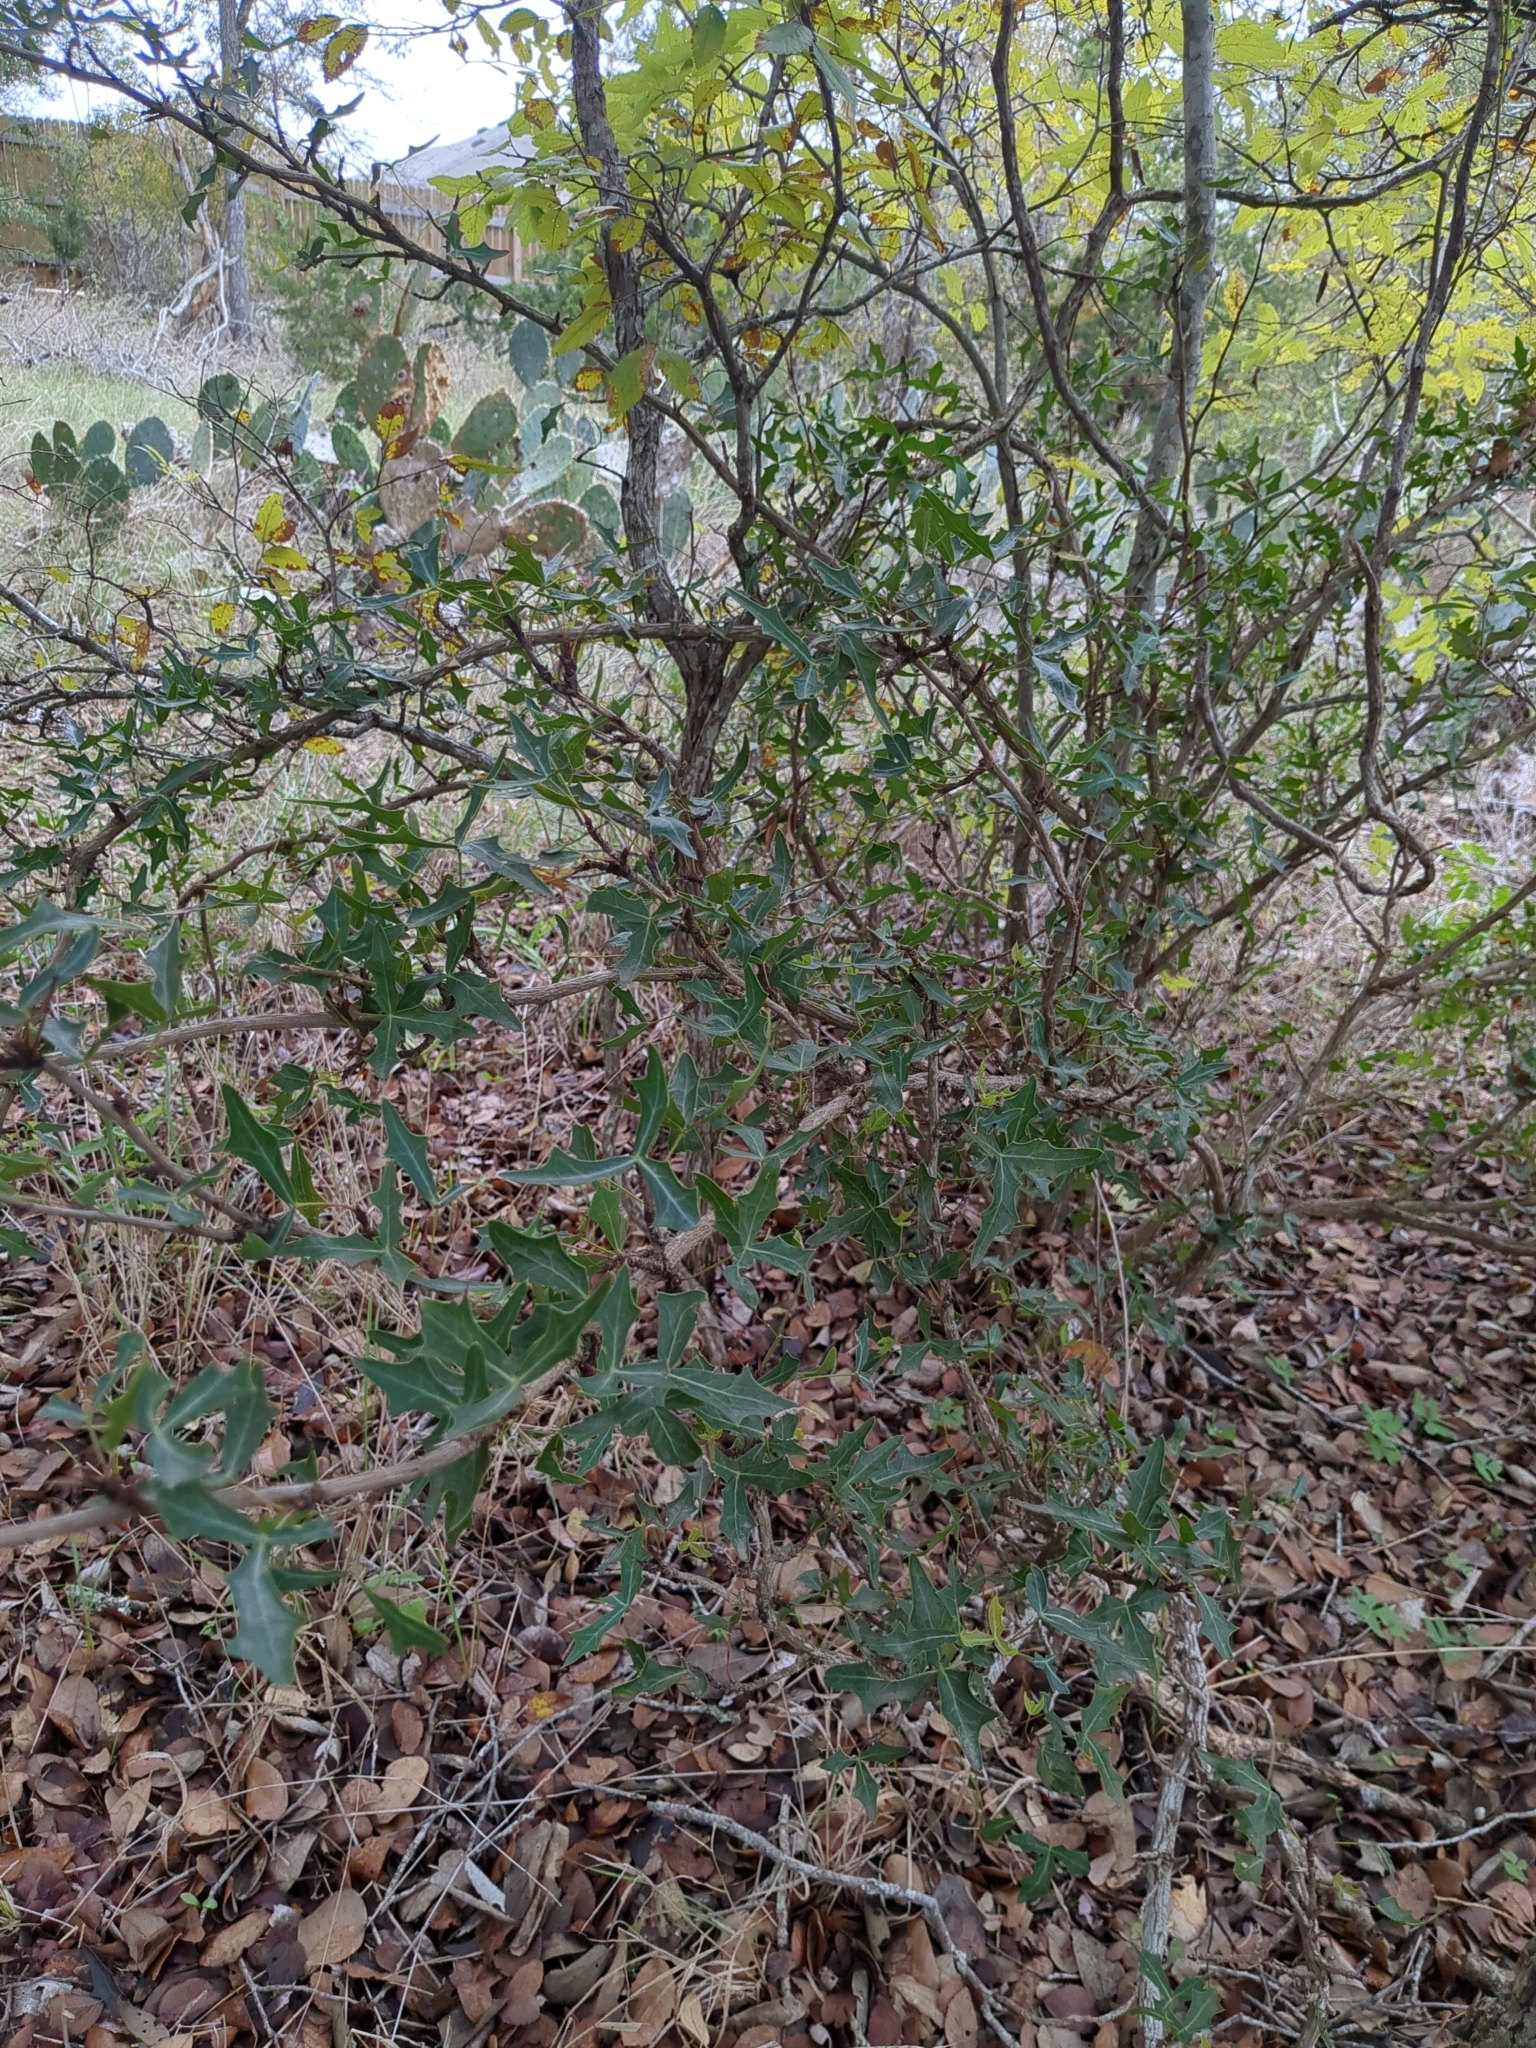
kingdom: Plantae
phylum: Tracheophyta
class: Magnoliopsida
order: Ranunculales
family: Berberidaceae
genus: Alloberberis
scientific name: Alloberberis trifoliolata
